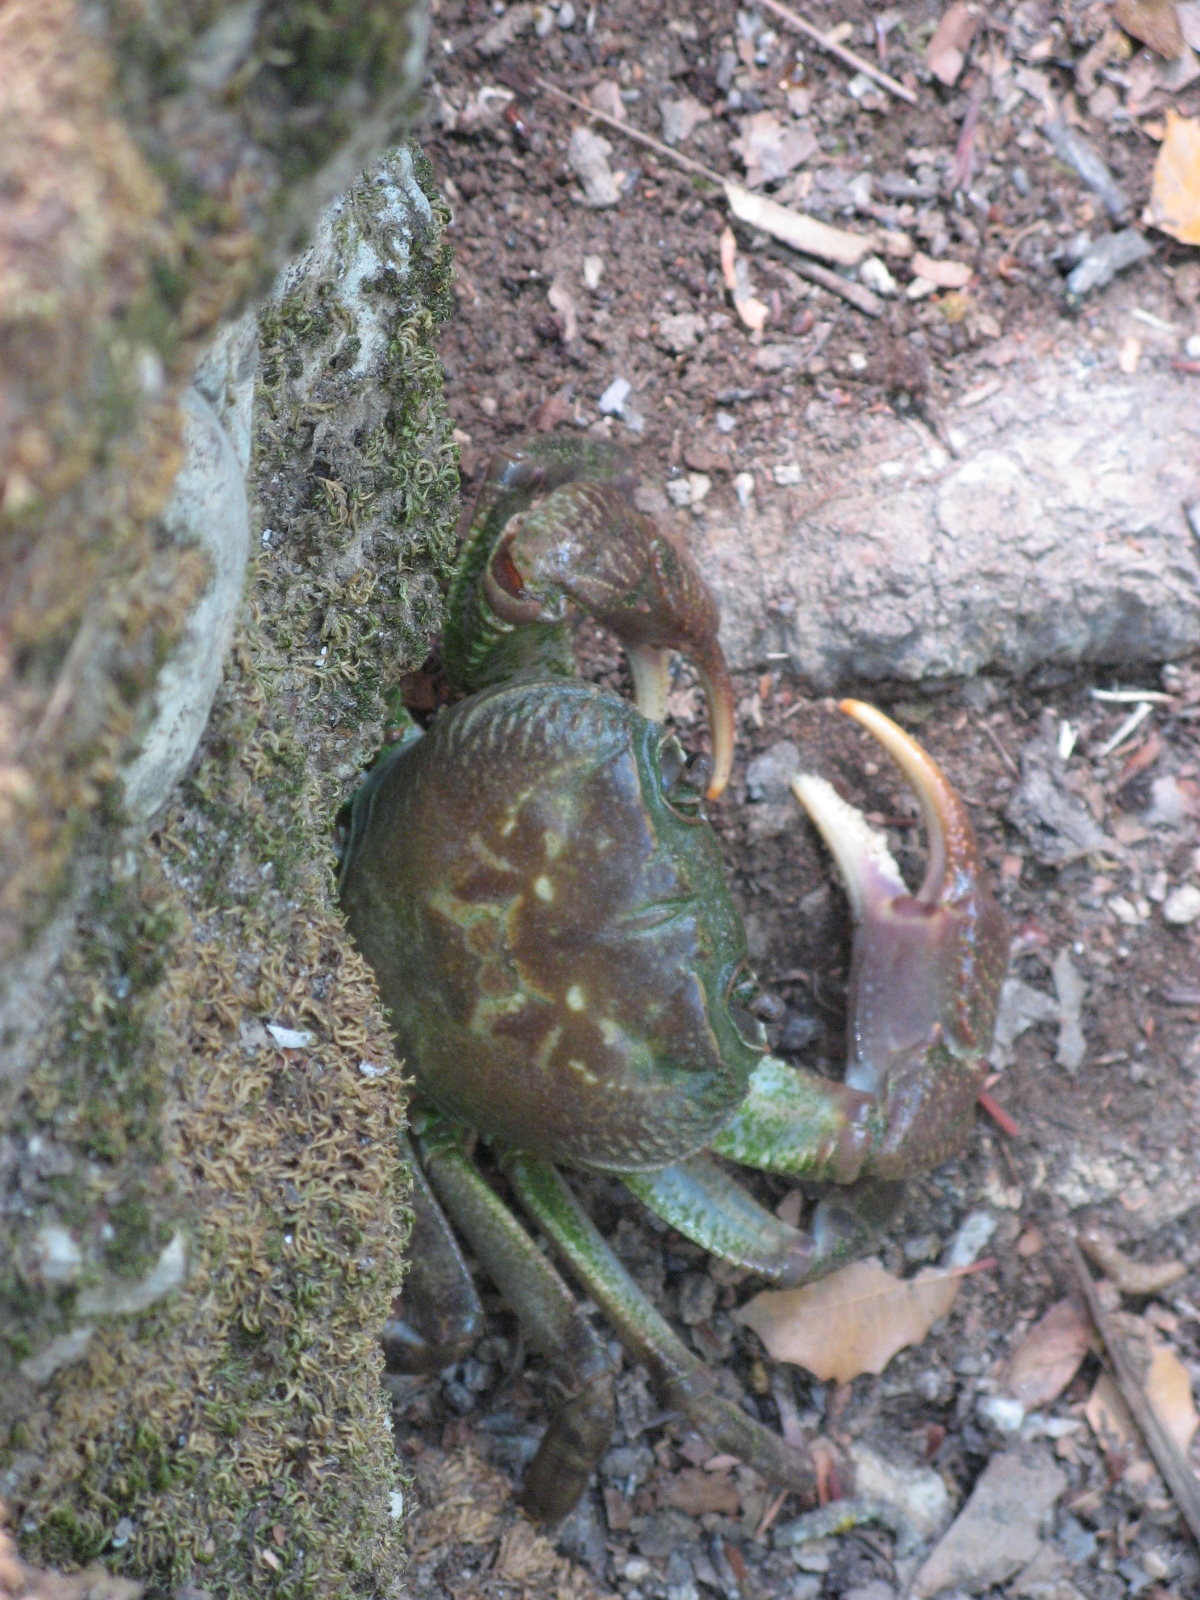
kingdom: Animalia
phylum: Arthropoda
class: Malacostraca
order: Decapoda
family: Potamidae
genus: Potamon
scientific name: Potamon rhodium
